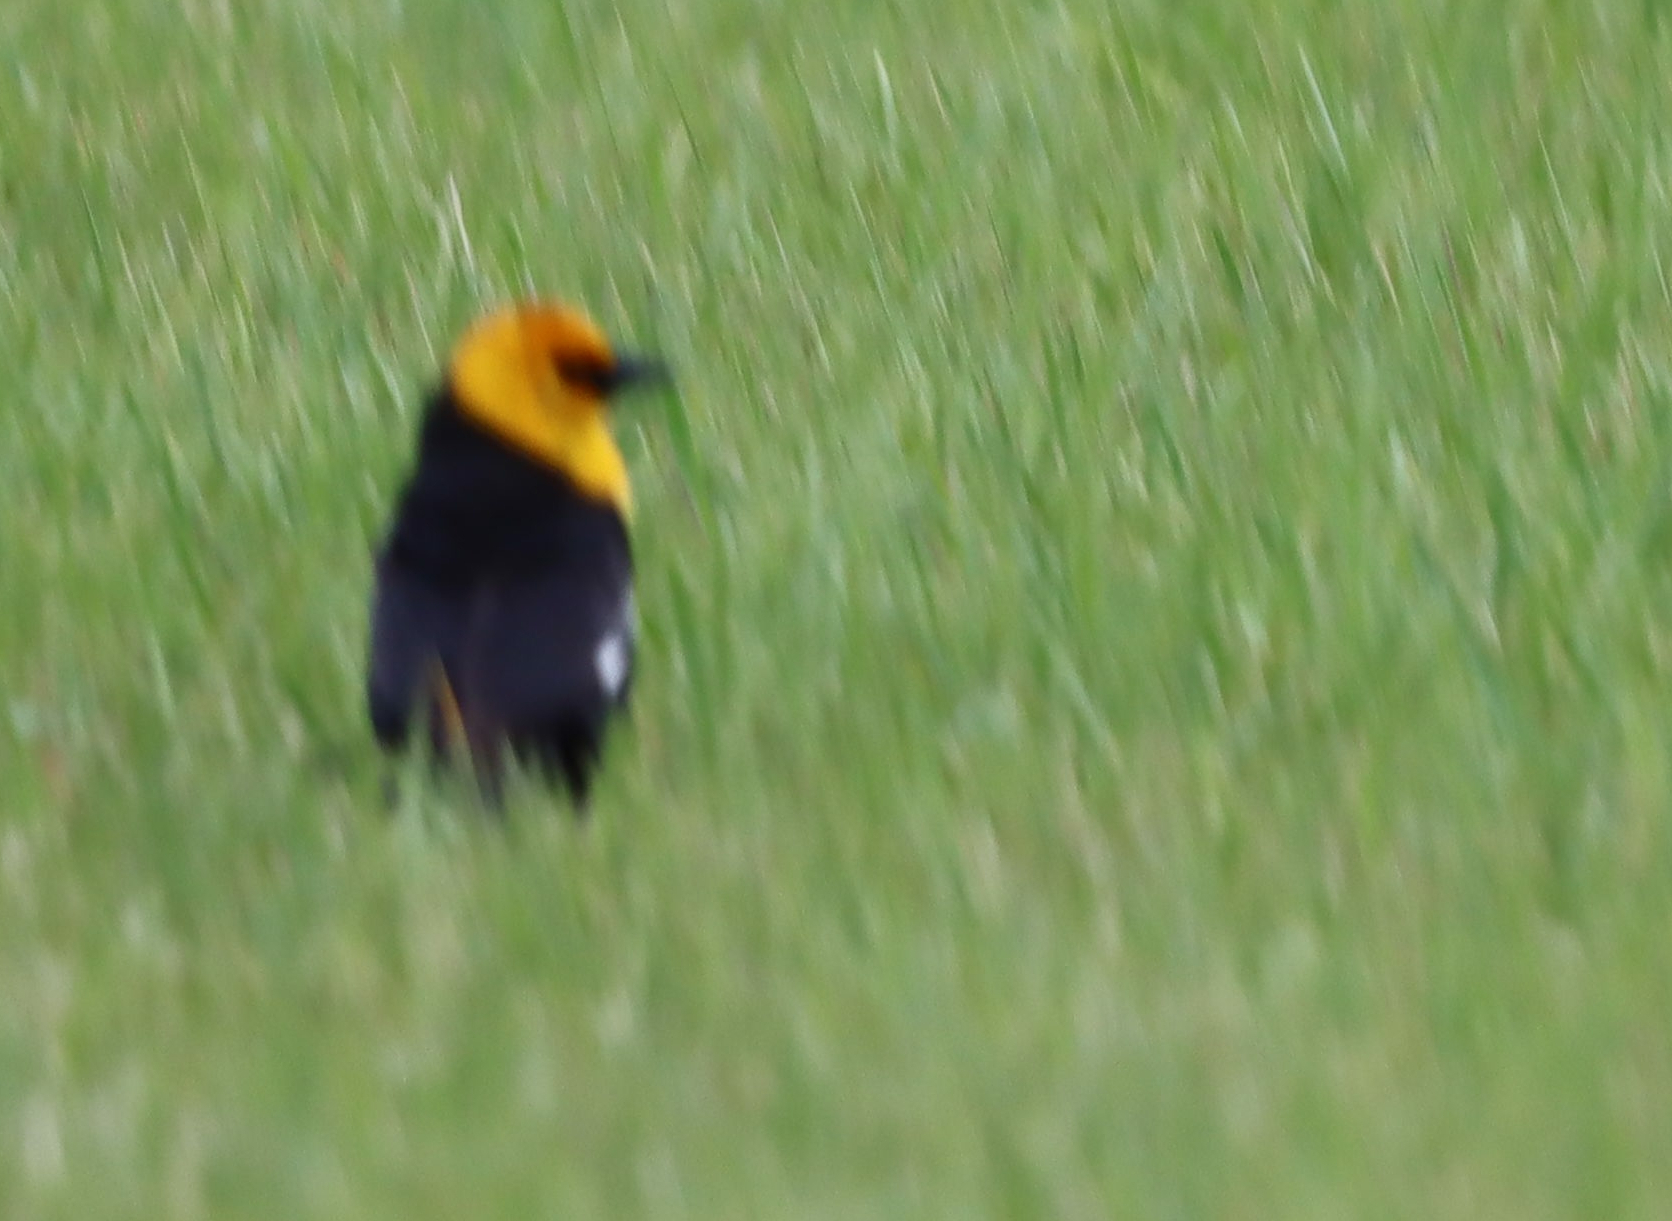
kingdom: Animalia
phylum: Chordata
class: Aves
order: Passeriformes
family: Icteridae
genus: Xanthocephalus
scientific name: Xanthocephalus xanthocephalus
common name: Yellow-headed blackbird
